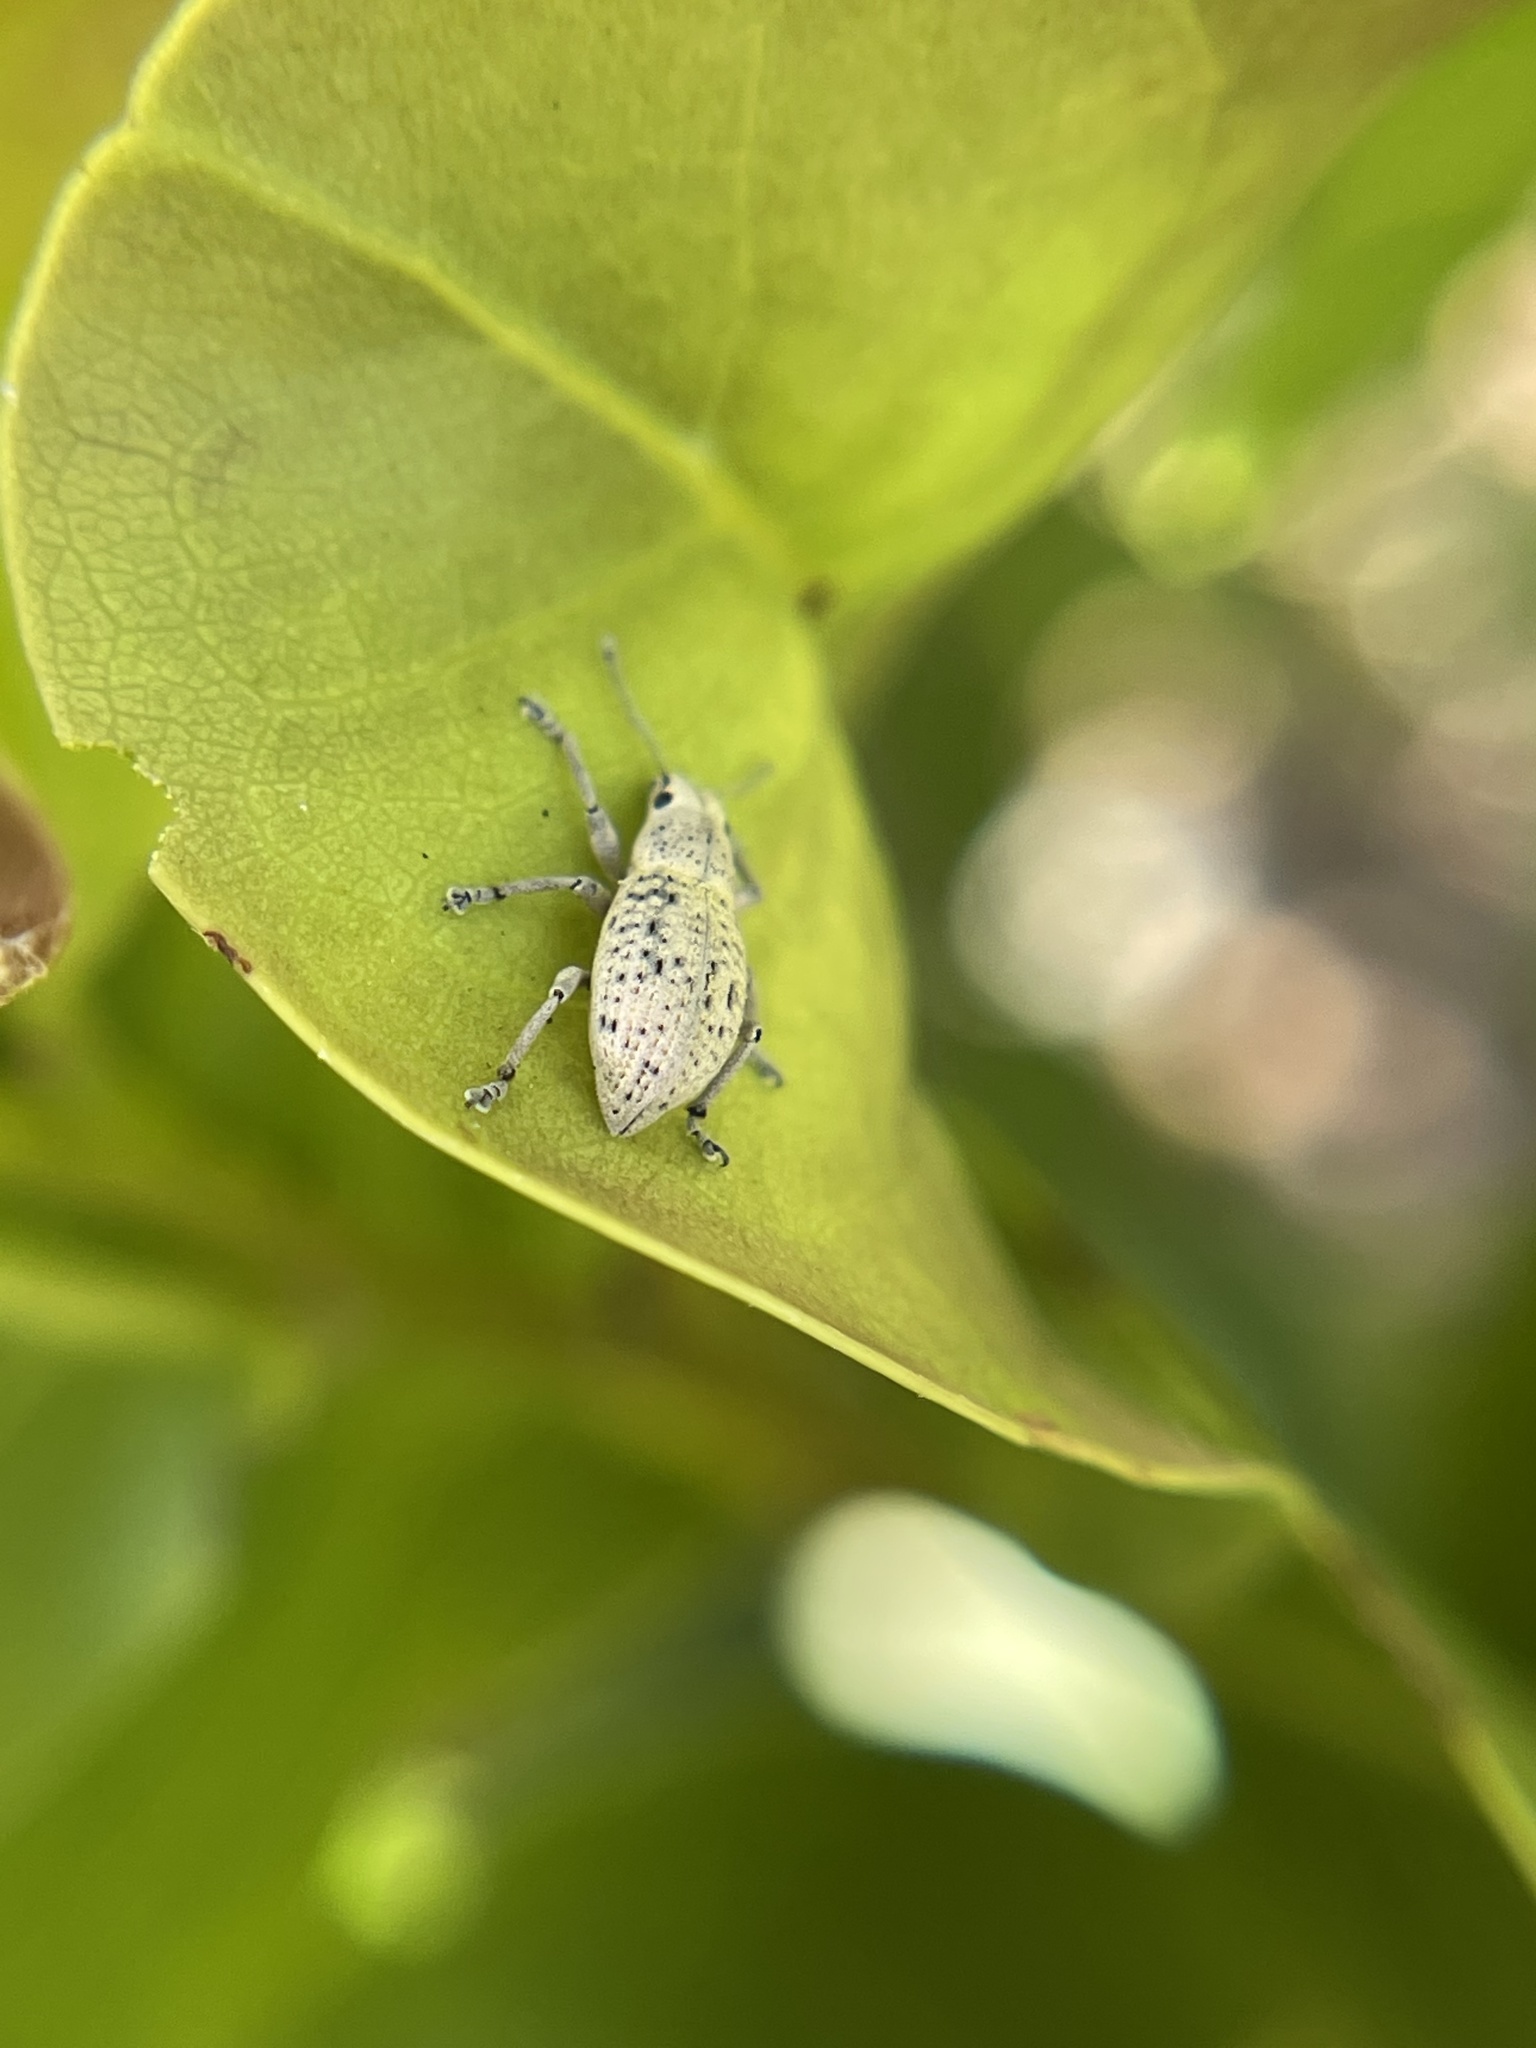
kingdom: Animalia
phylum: Arthropoda
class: Insecta
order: Coleoptera
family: Curculionidae
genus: Artipus
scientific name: Artipus floridanus
